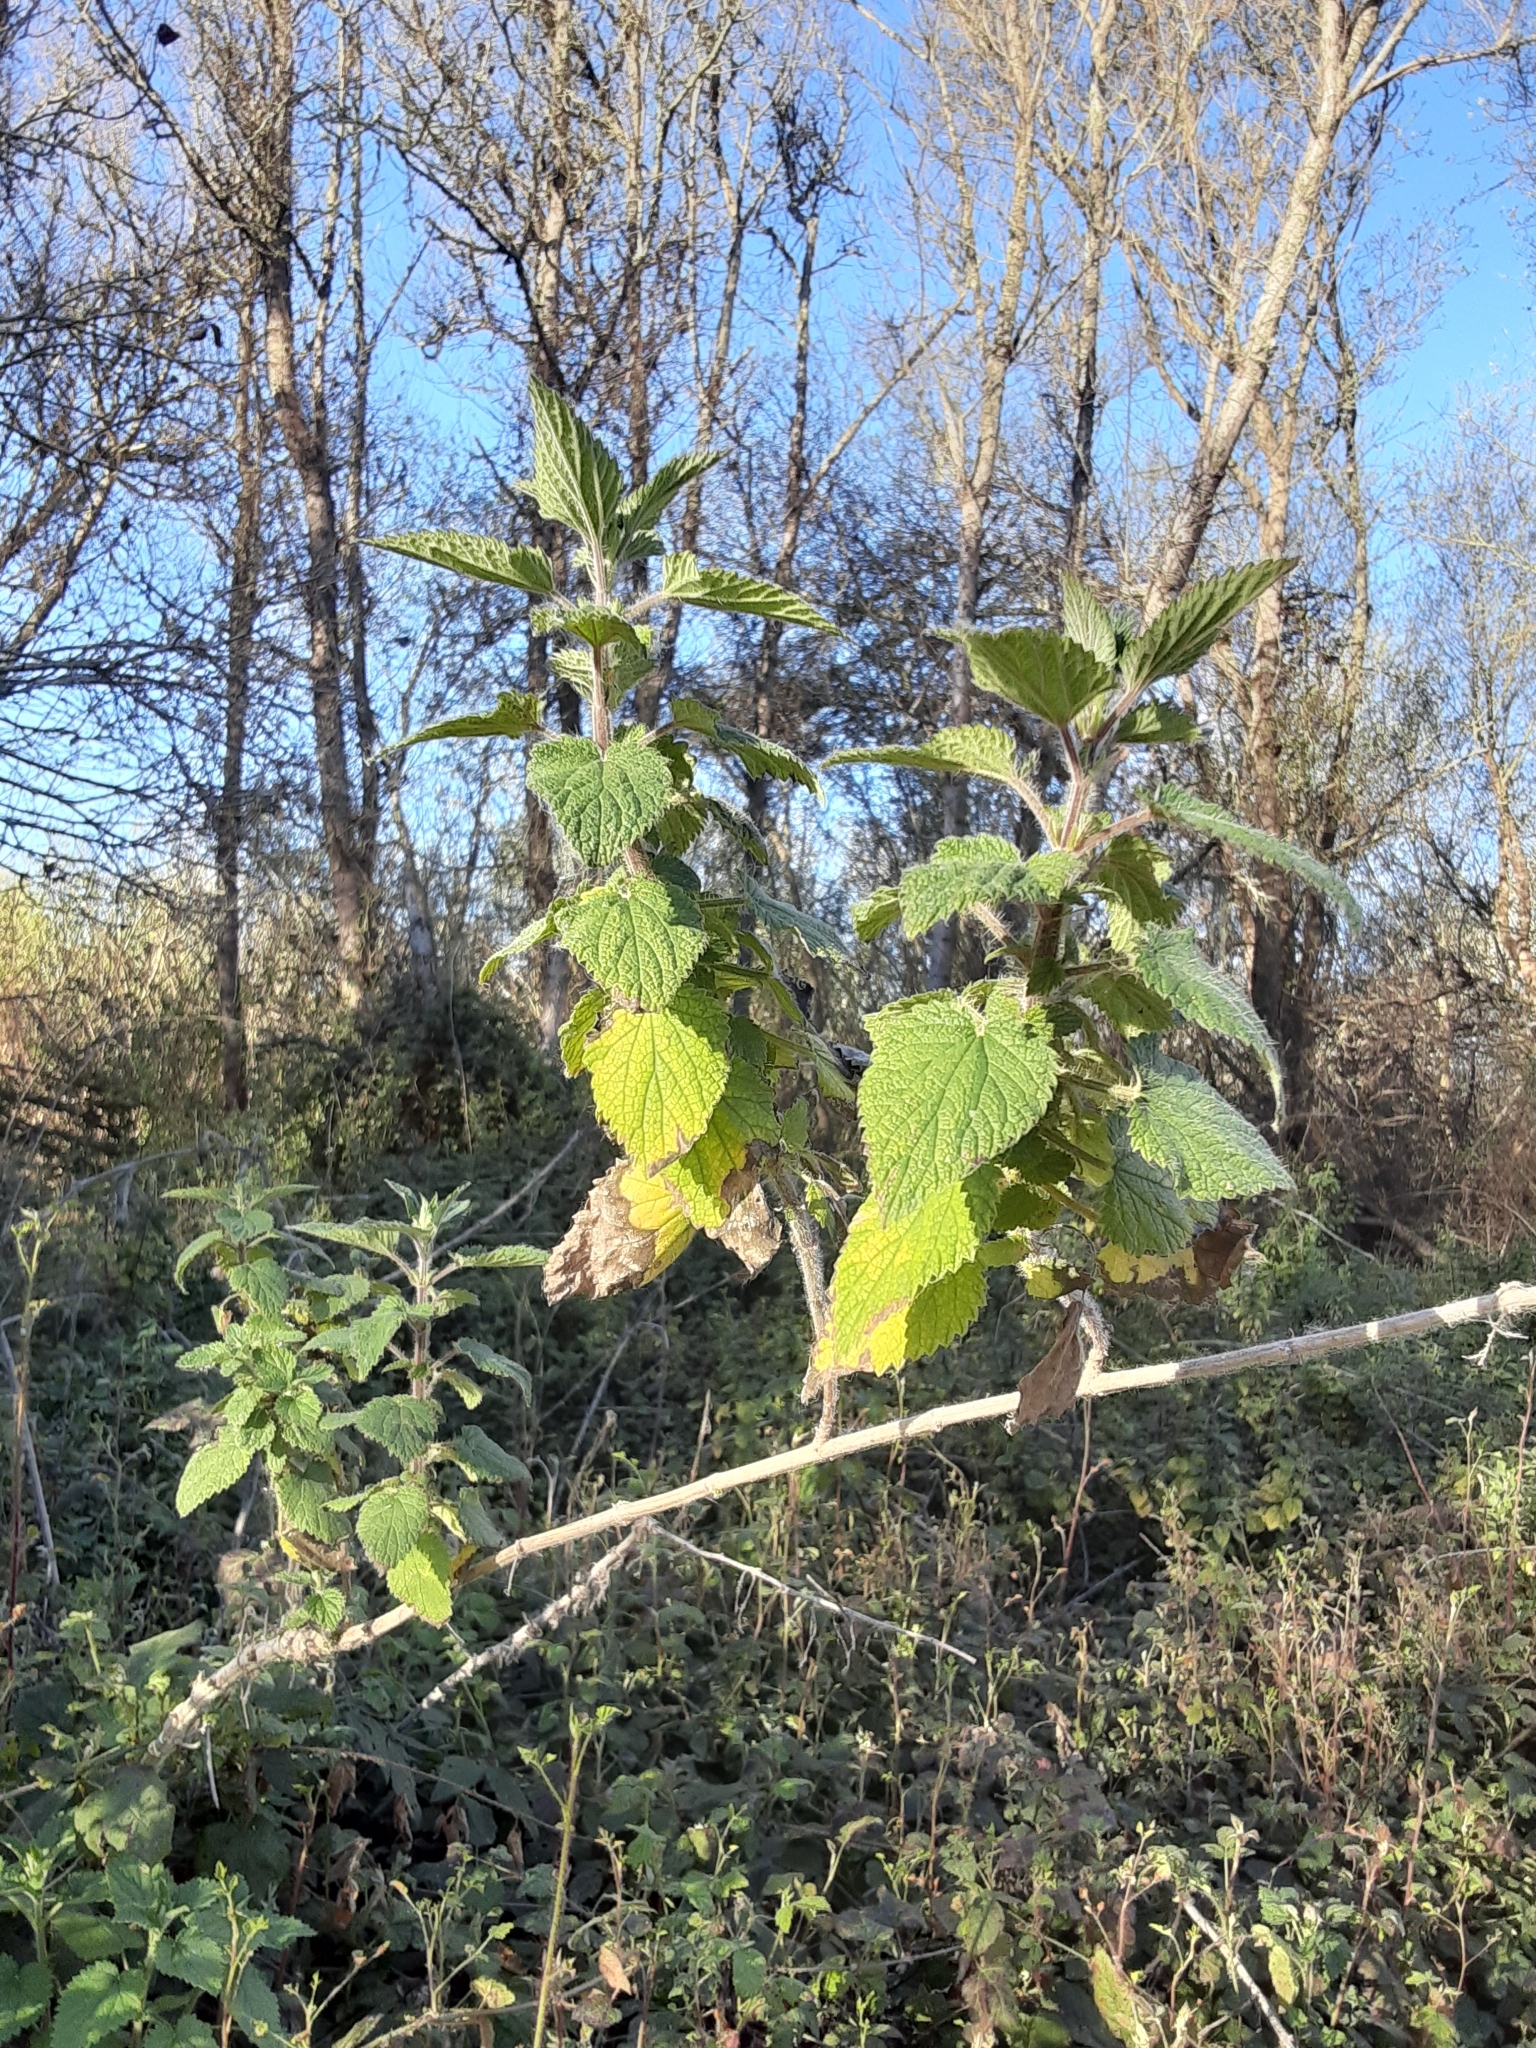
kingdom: Plantae
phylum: Tracheophyta
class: Magnoliopsida
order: Rosales
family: Urticaceae
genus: Urtica
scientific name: Urtica dioica
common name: Common nettle
